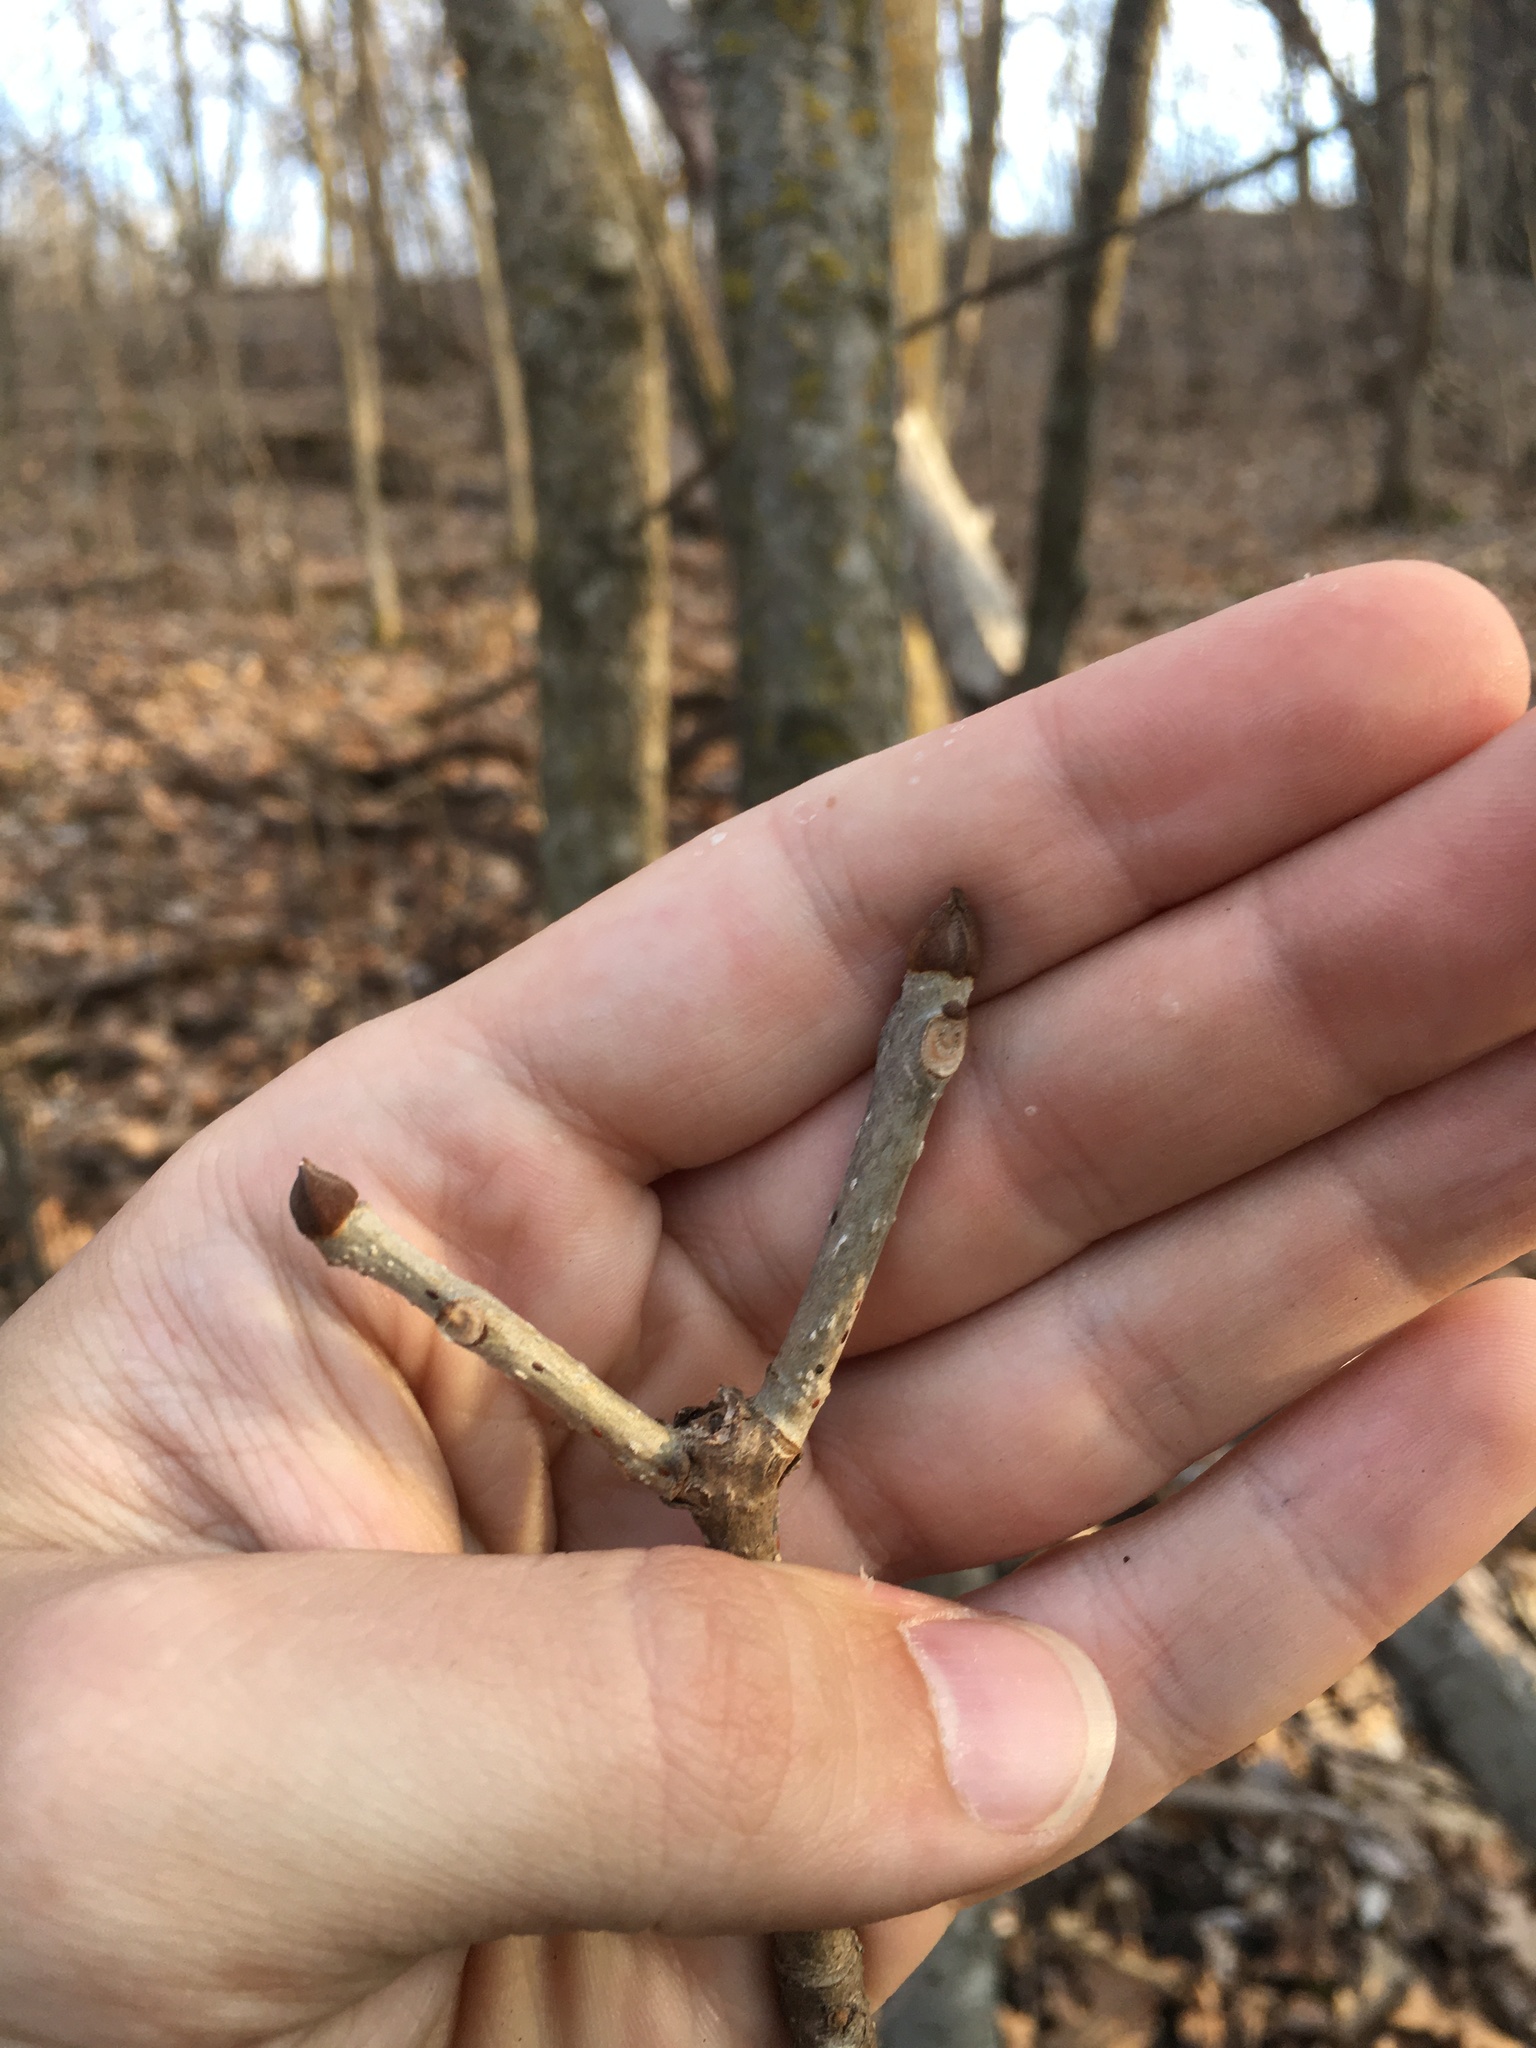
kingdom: Plantae
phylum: Tracheophyta
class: Magnoliopsida
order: Lamiales
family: Oleaceae
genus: Fraxinus
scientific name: Fraxinus nigra
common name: Black ash
